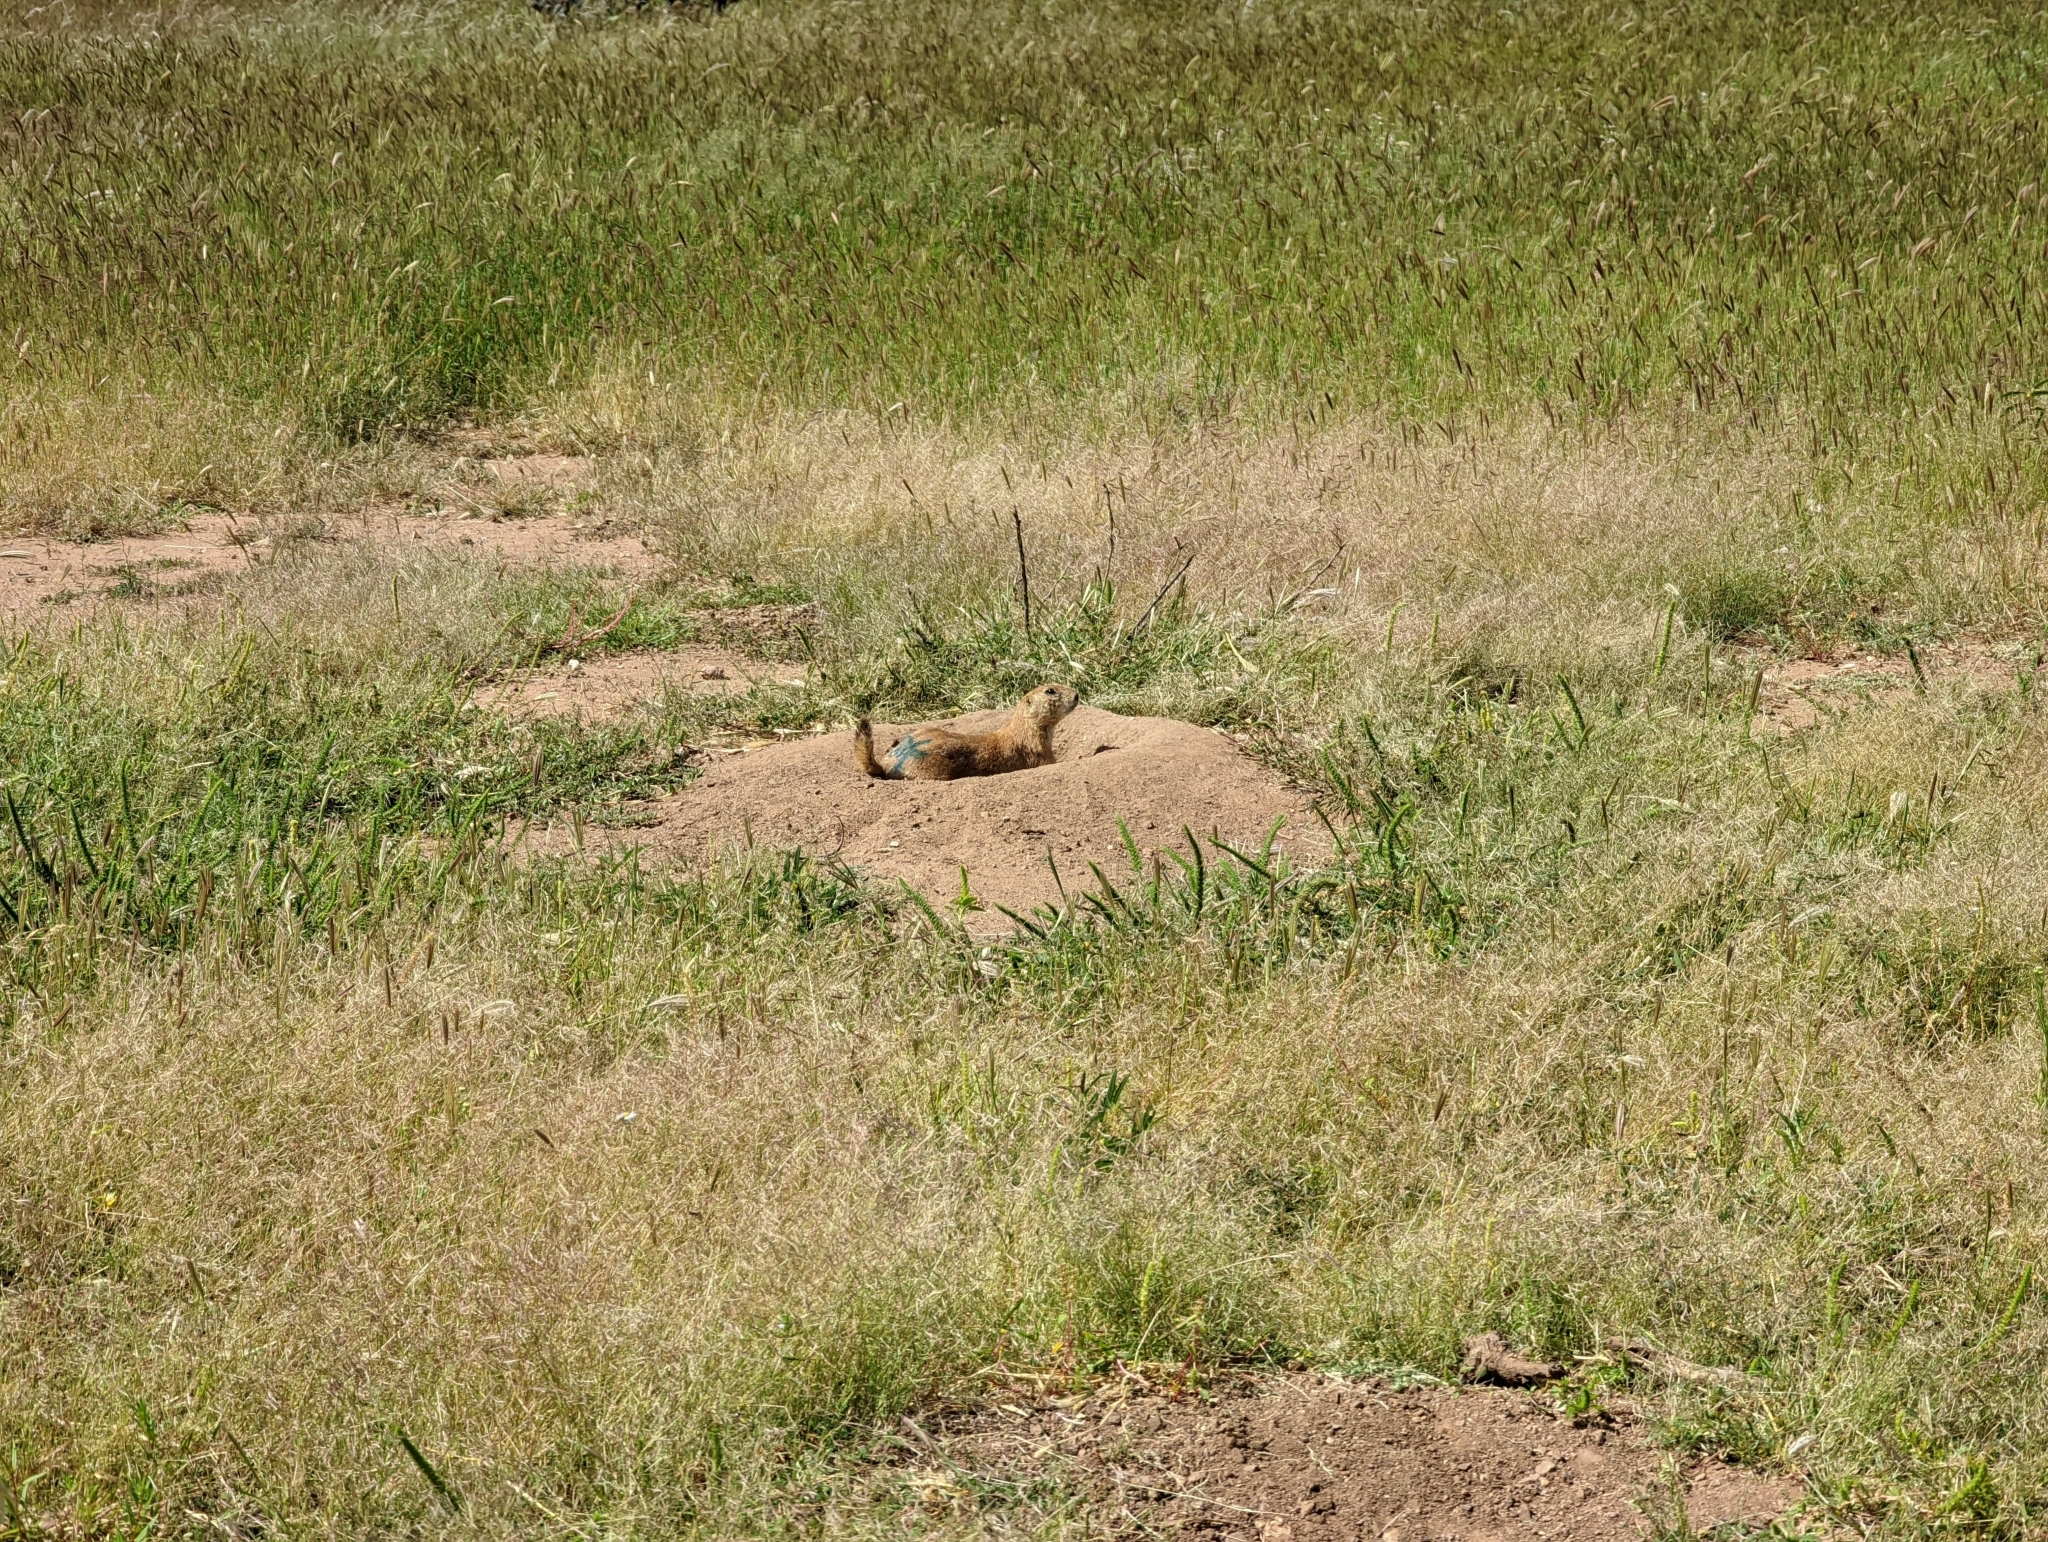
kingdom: Animalia
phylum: Chordata
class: Mammalia
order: Rodentia
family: Sciuridae
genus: Cynomys
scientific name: Cynomys ludovicianus
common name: Black-tailed prairie dog
